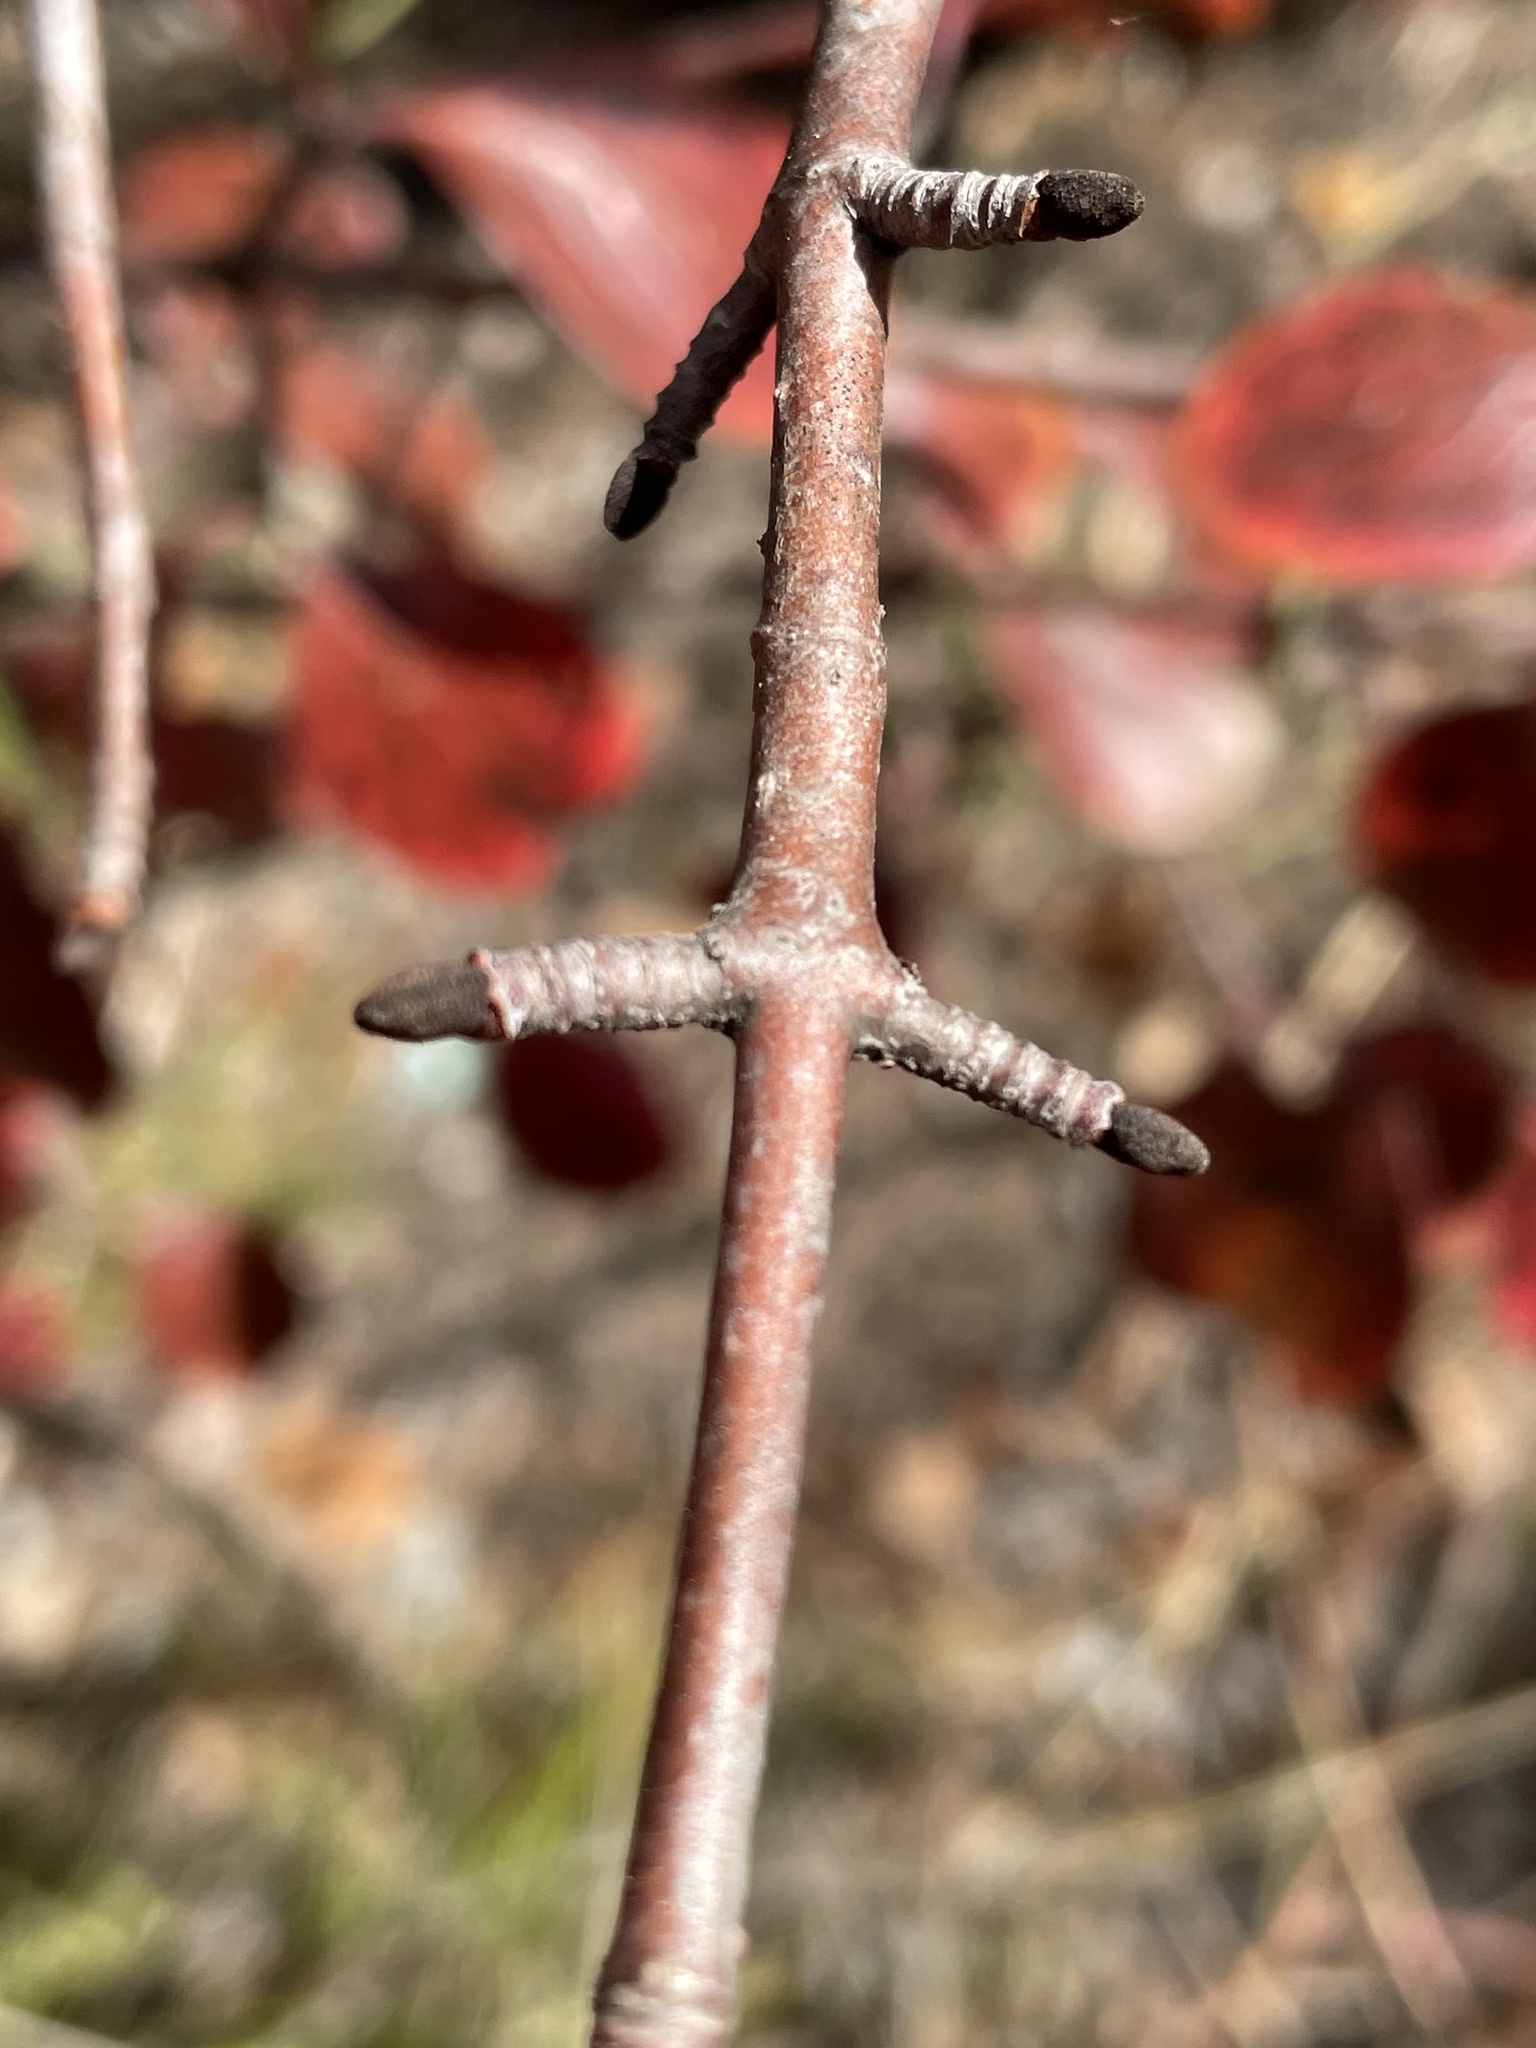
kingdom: Plantae
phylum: Tracheophyta
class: Magnoliopsida
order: Dipsacales
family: Viburnaceae
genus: Viburnum
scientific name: Viburnum rufidulum
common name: Blue haw
